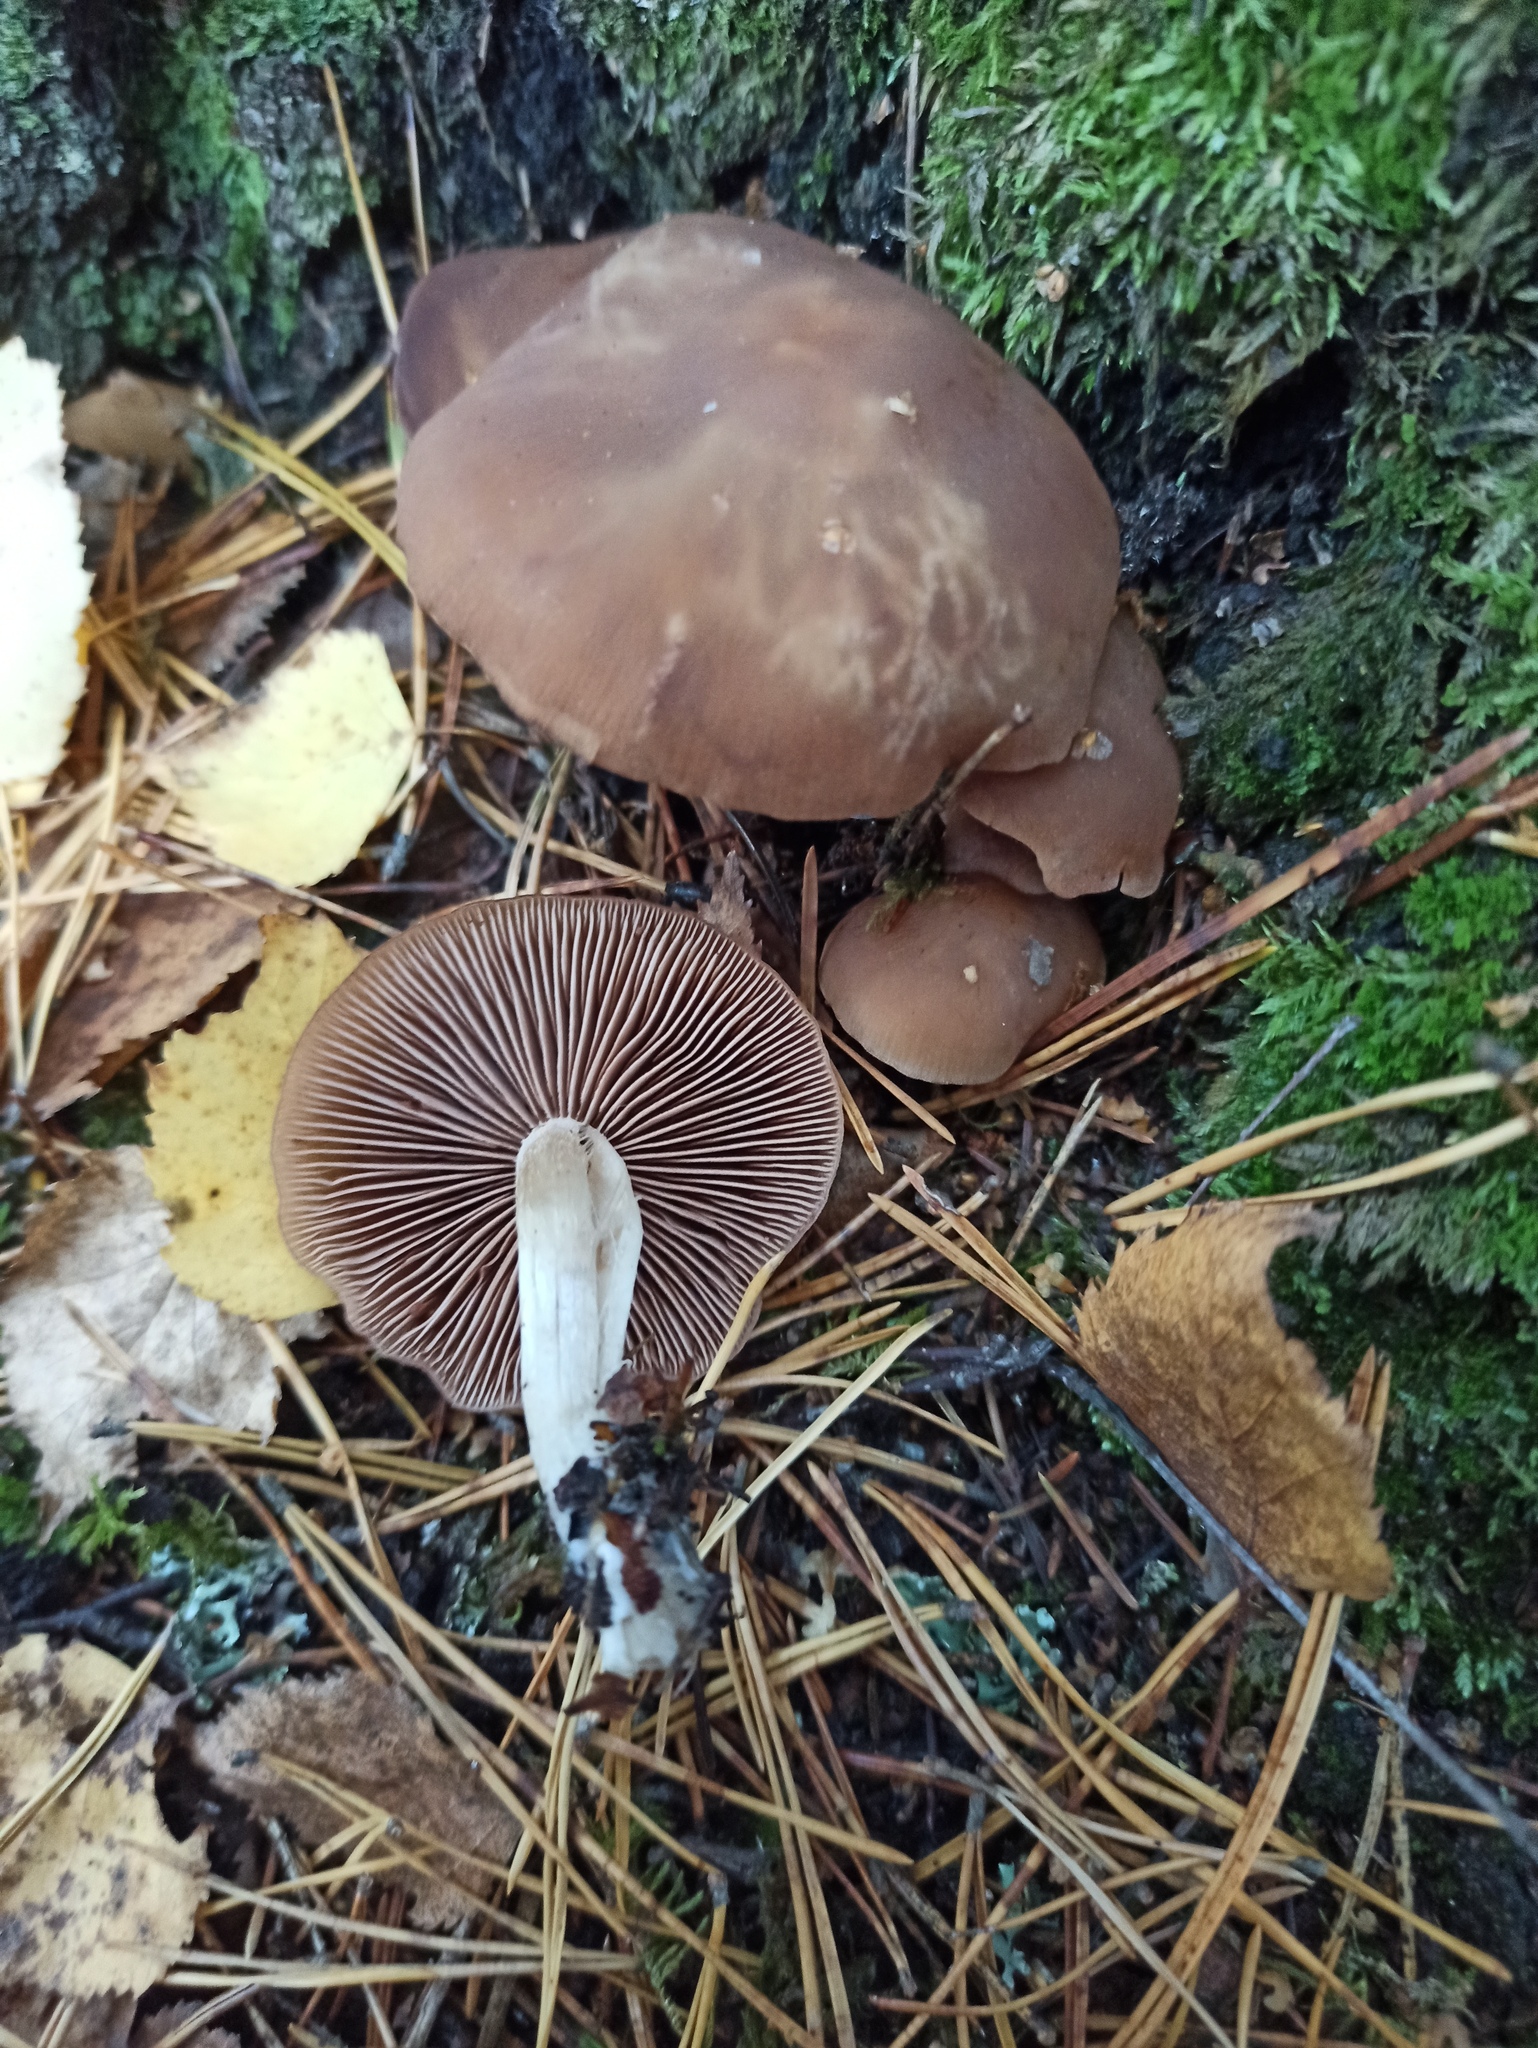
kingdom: Fungi
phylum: Basidiomycota
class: Agaricomycetes
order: Agaricales
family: Psathyrellaceae
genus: Homophron
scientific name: Homophron spadiceum
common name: Chestnut brittlestem
